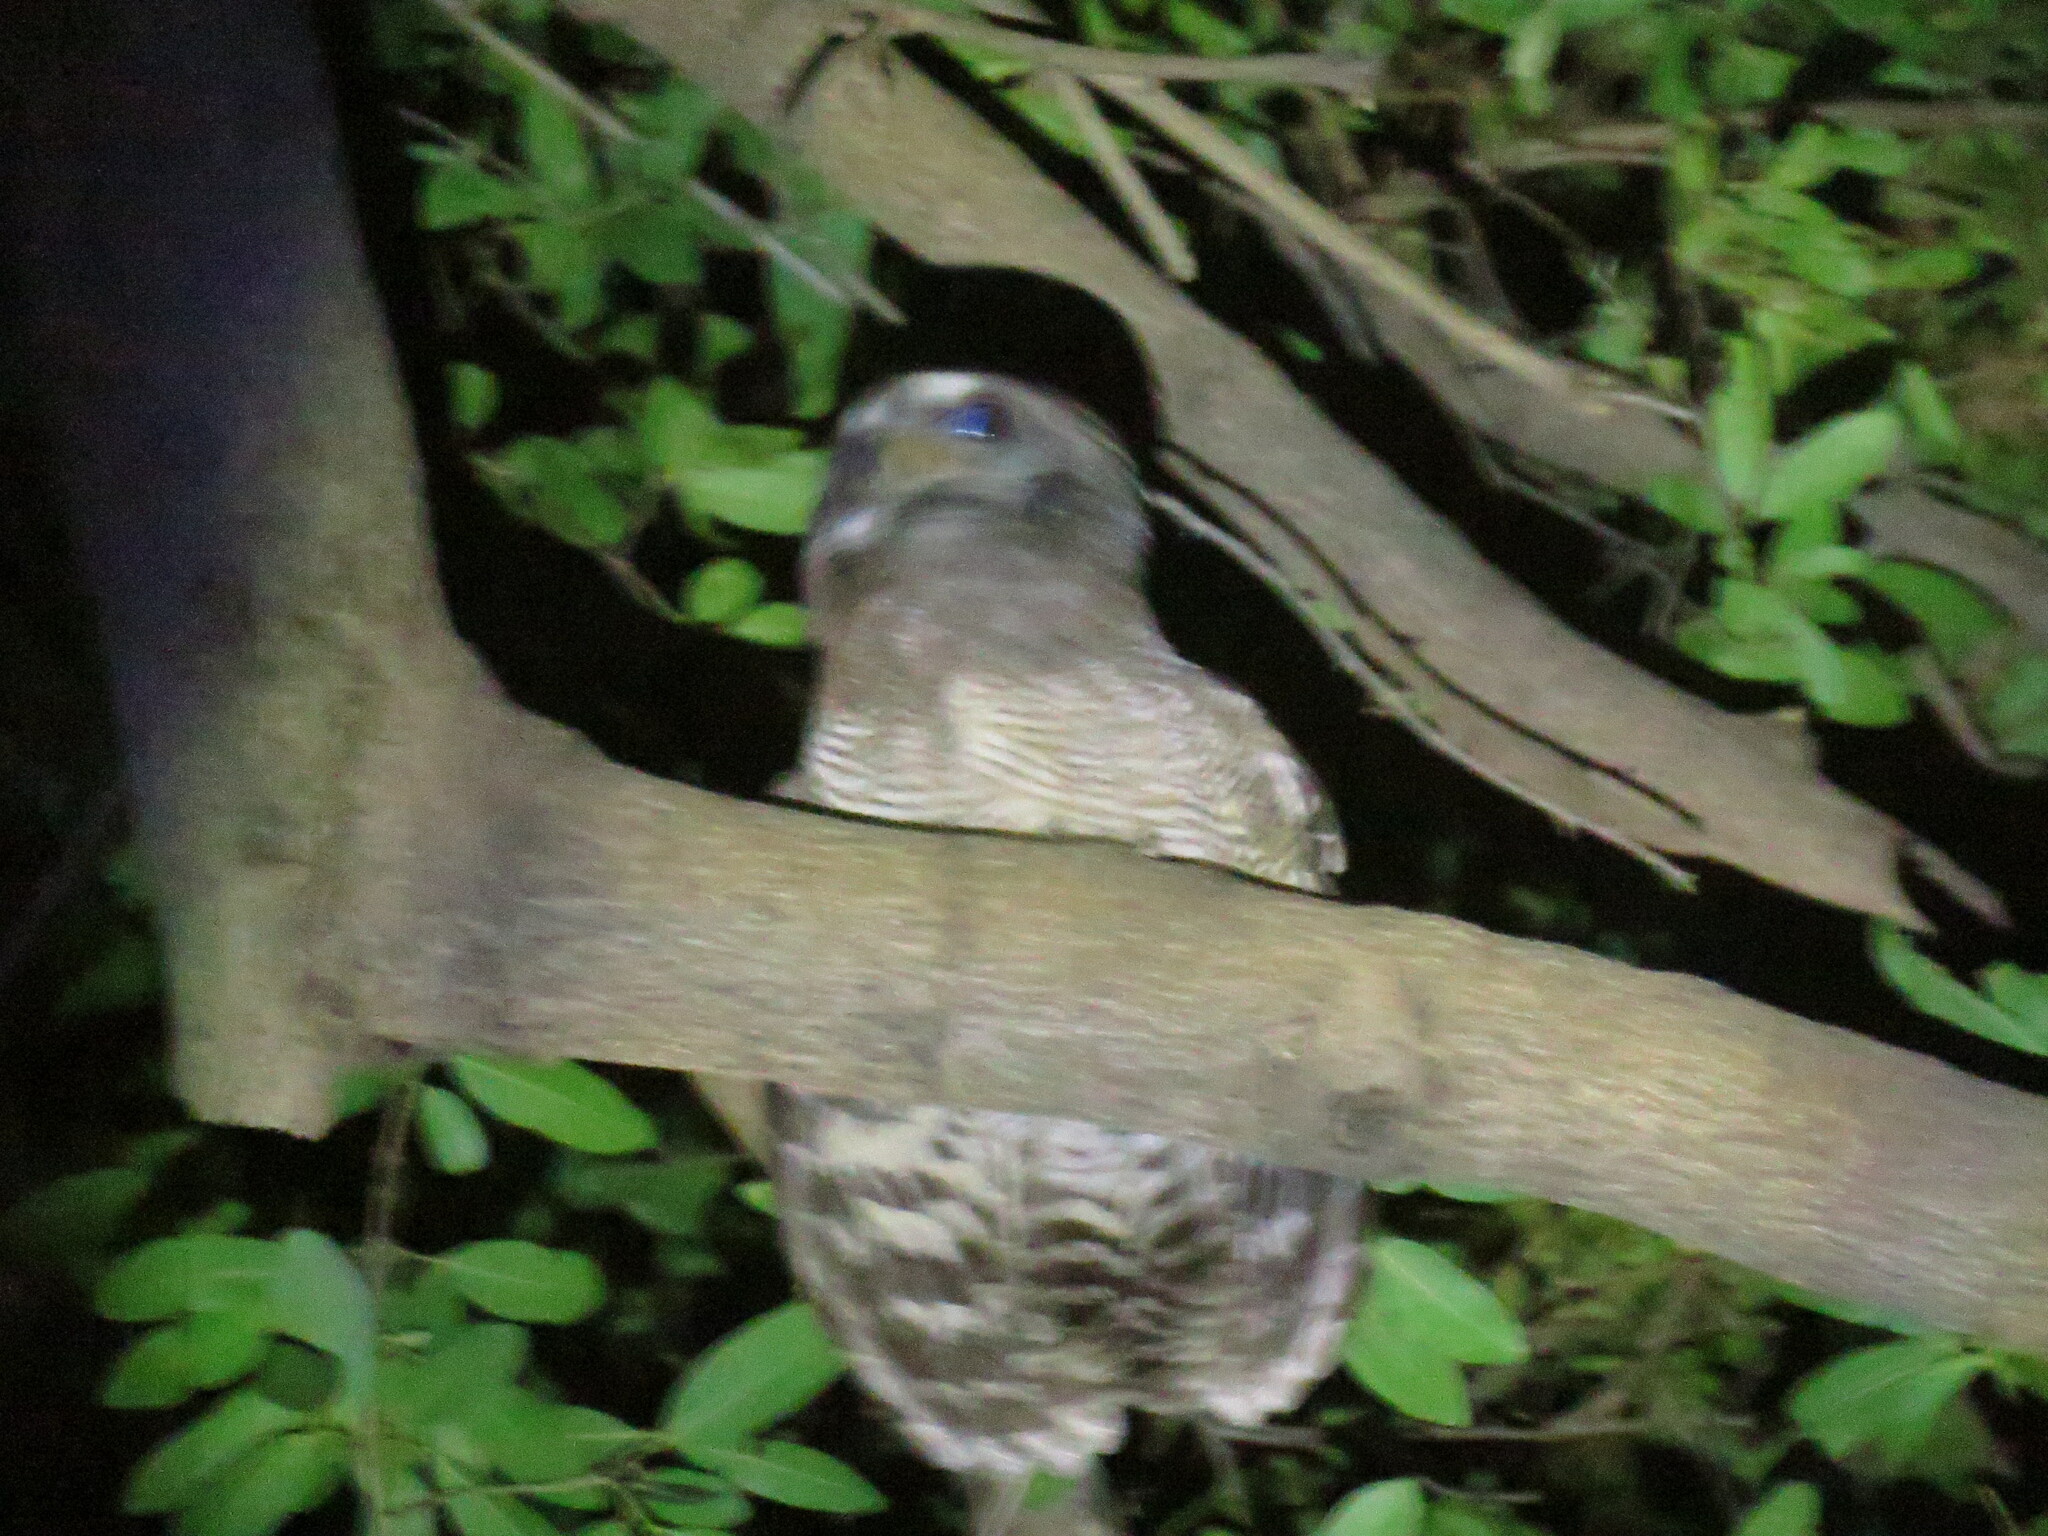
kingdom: Animalia
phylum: Chordata
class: Aves
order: Strigiformes
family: Strigidae
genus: Strix
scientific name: Strix woodfordii
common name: African wood owl
